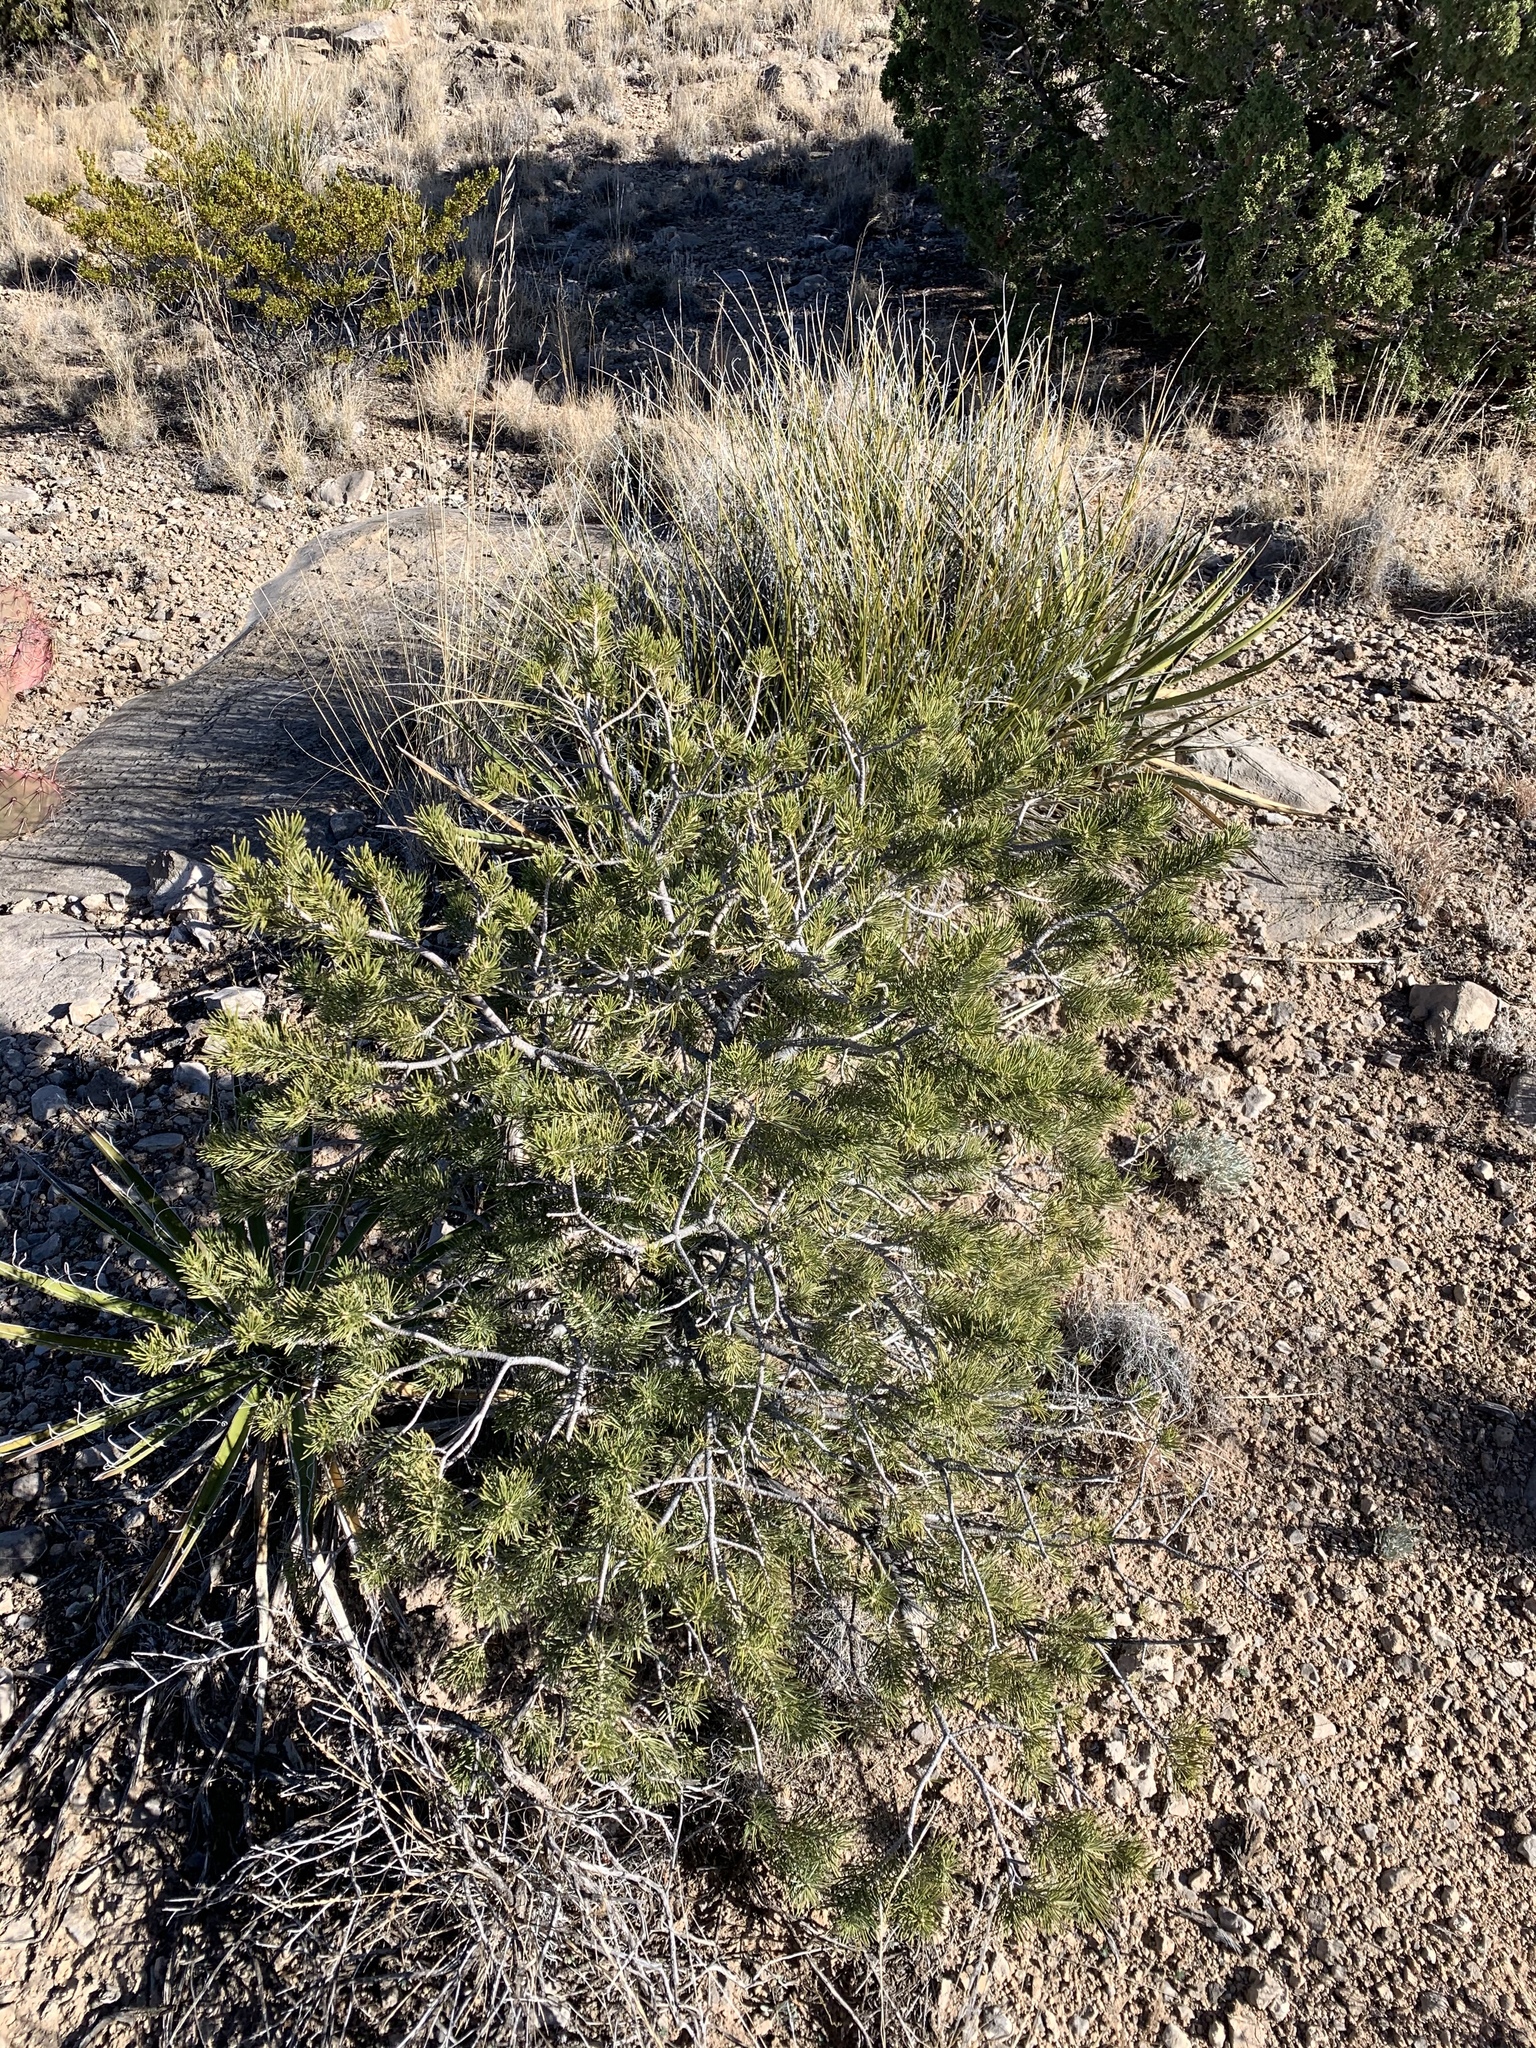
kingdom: Plantae
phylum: Tracheophyta
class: Pinopsida
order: Pinales
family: Pinaceae
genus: Pinus
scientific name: Pinus edulis
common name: Colorado pinyon
